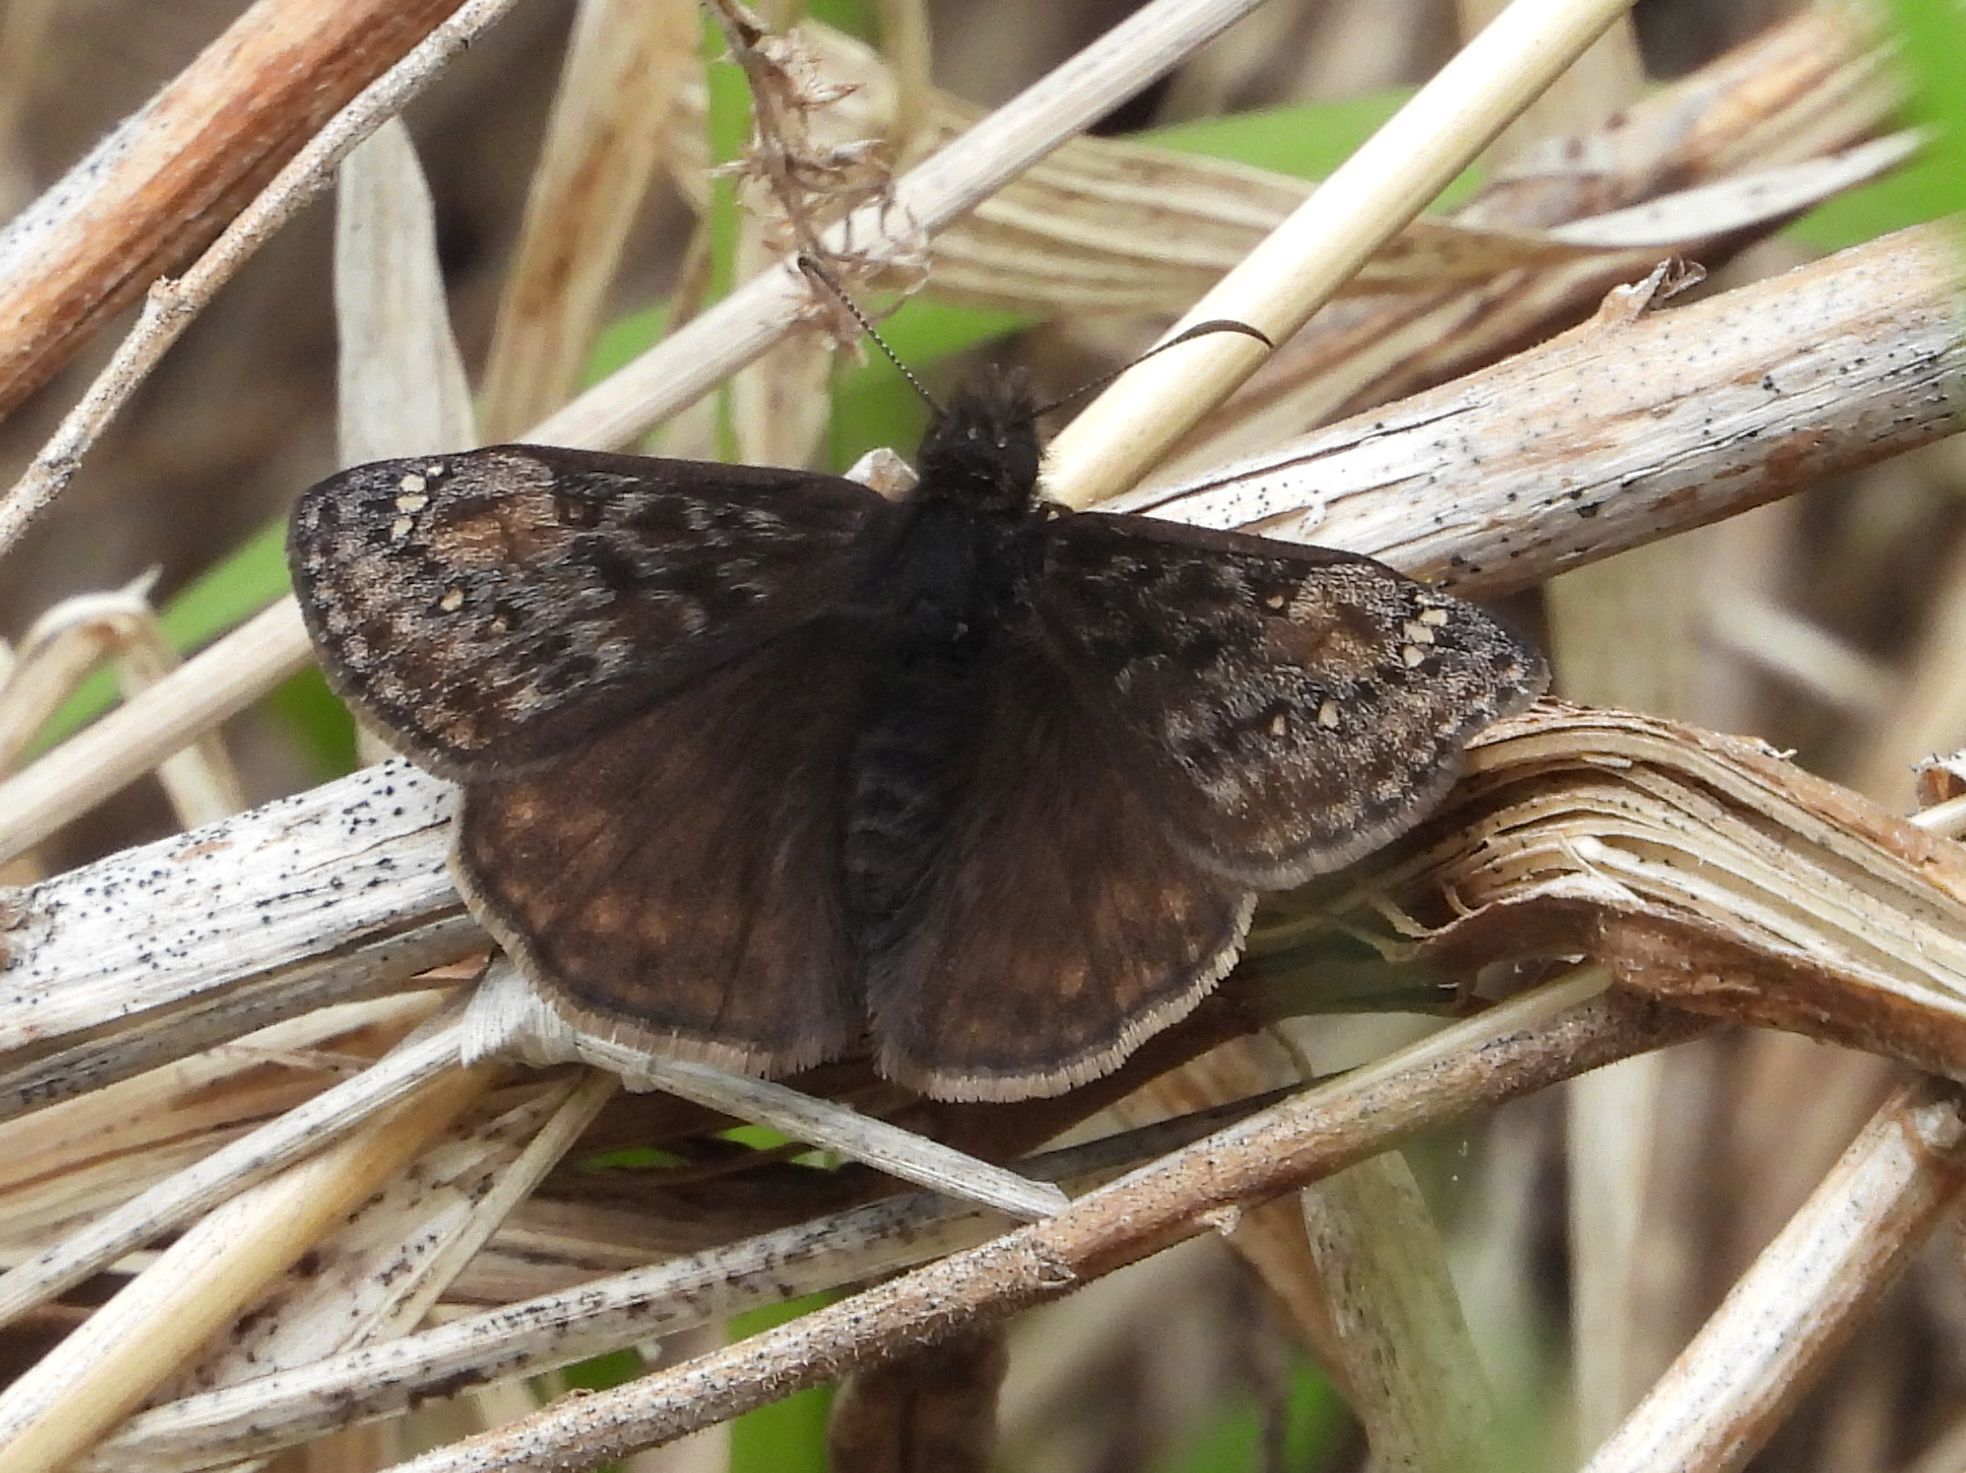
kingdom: Animalia
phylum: Arthropoda
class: Insecta
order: Lepidoptera
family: Hesperiidae
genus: Erynnis
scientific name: Erynnis juvenalis
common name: Juvenal's duskywing
